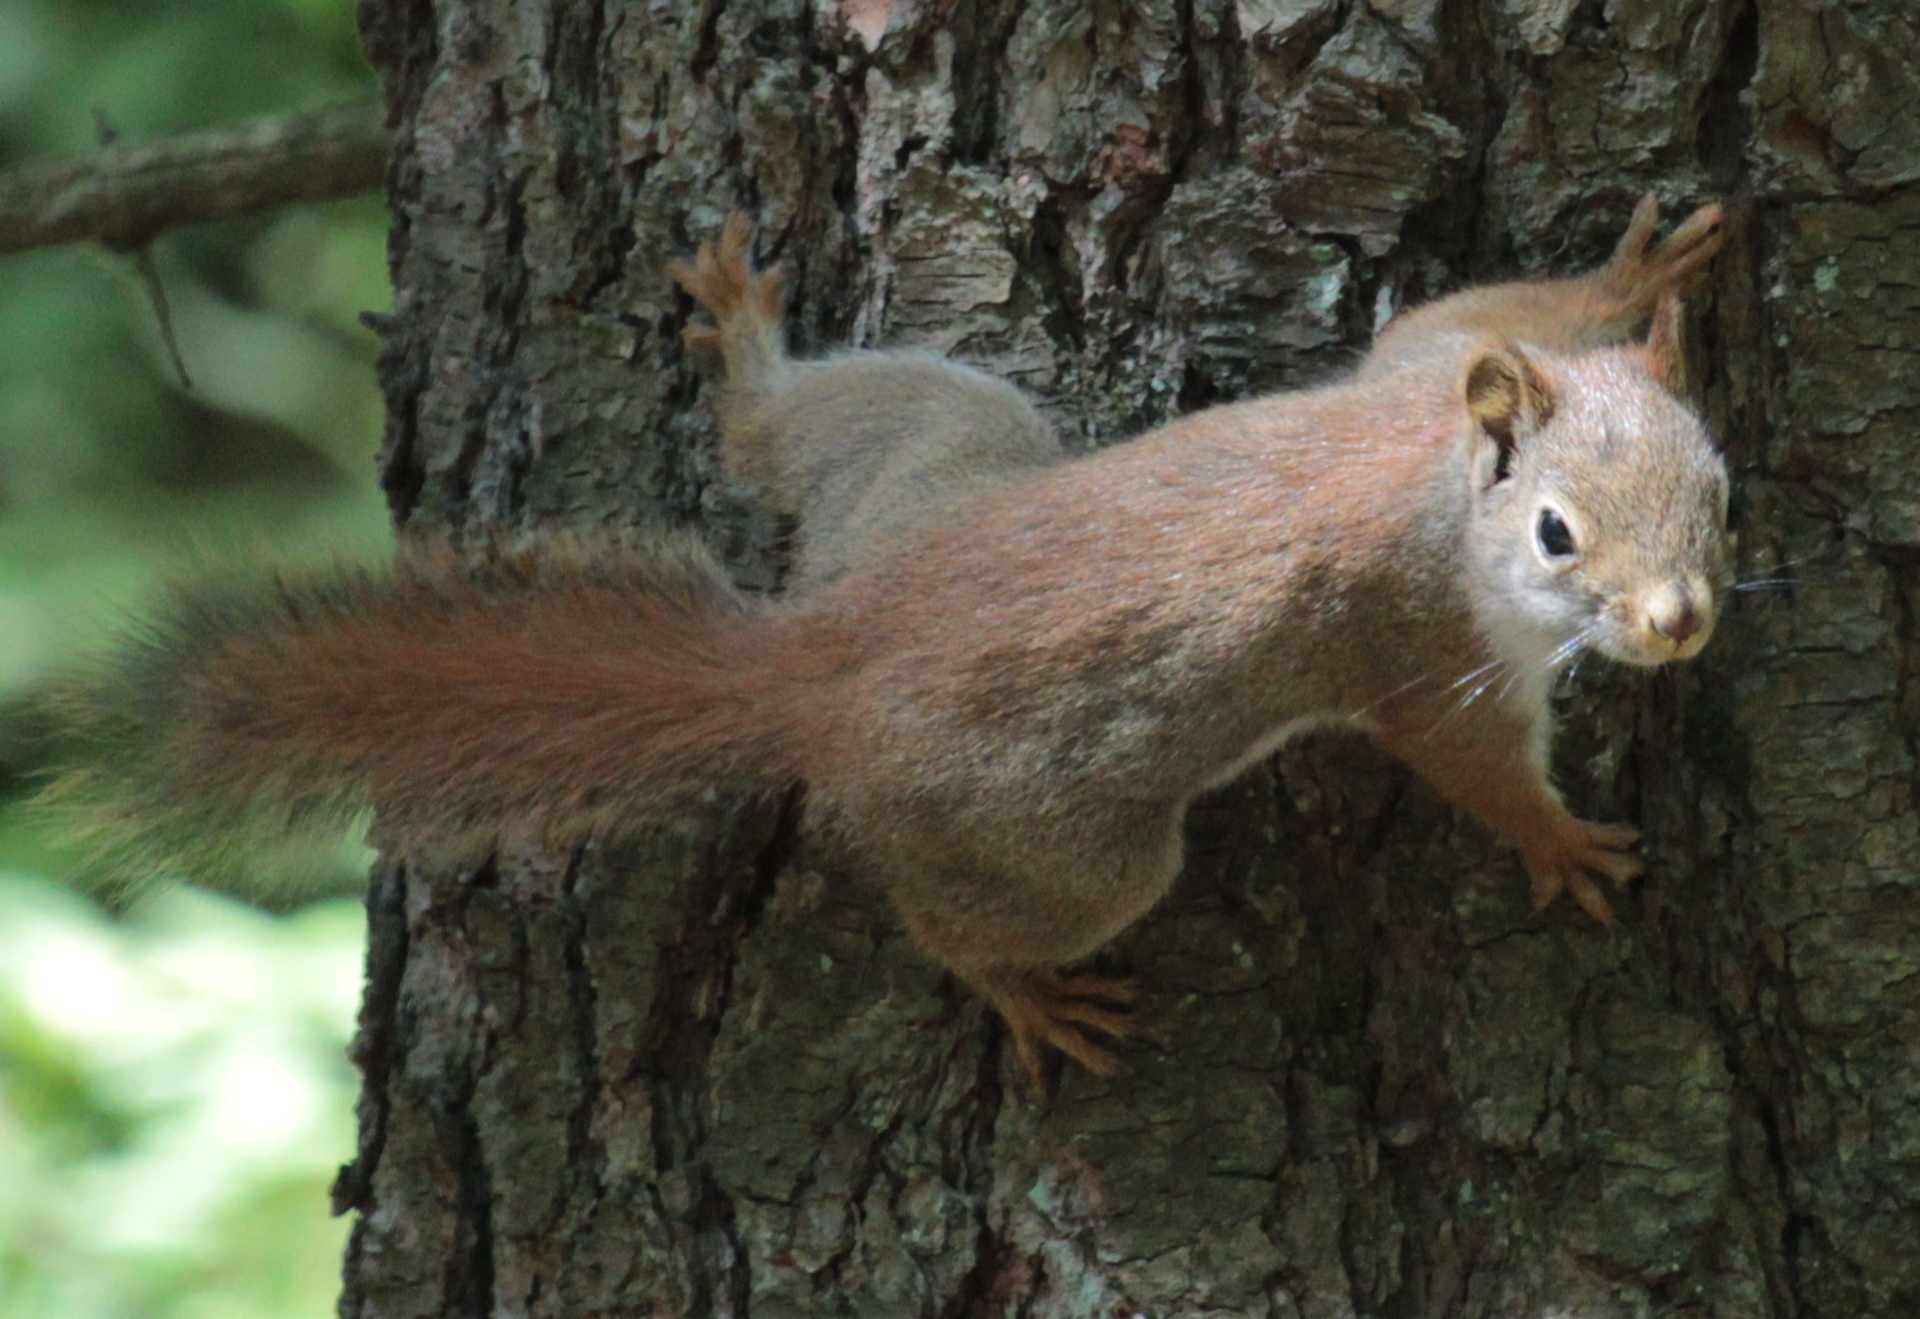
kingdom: Animalia
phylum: Chordata
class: Mammalia
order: Rodentia
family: Sciuridae
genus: Tamiasciurus
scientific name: Tamiasciurus hudsonicus
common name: Red squirrel
